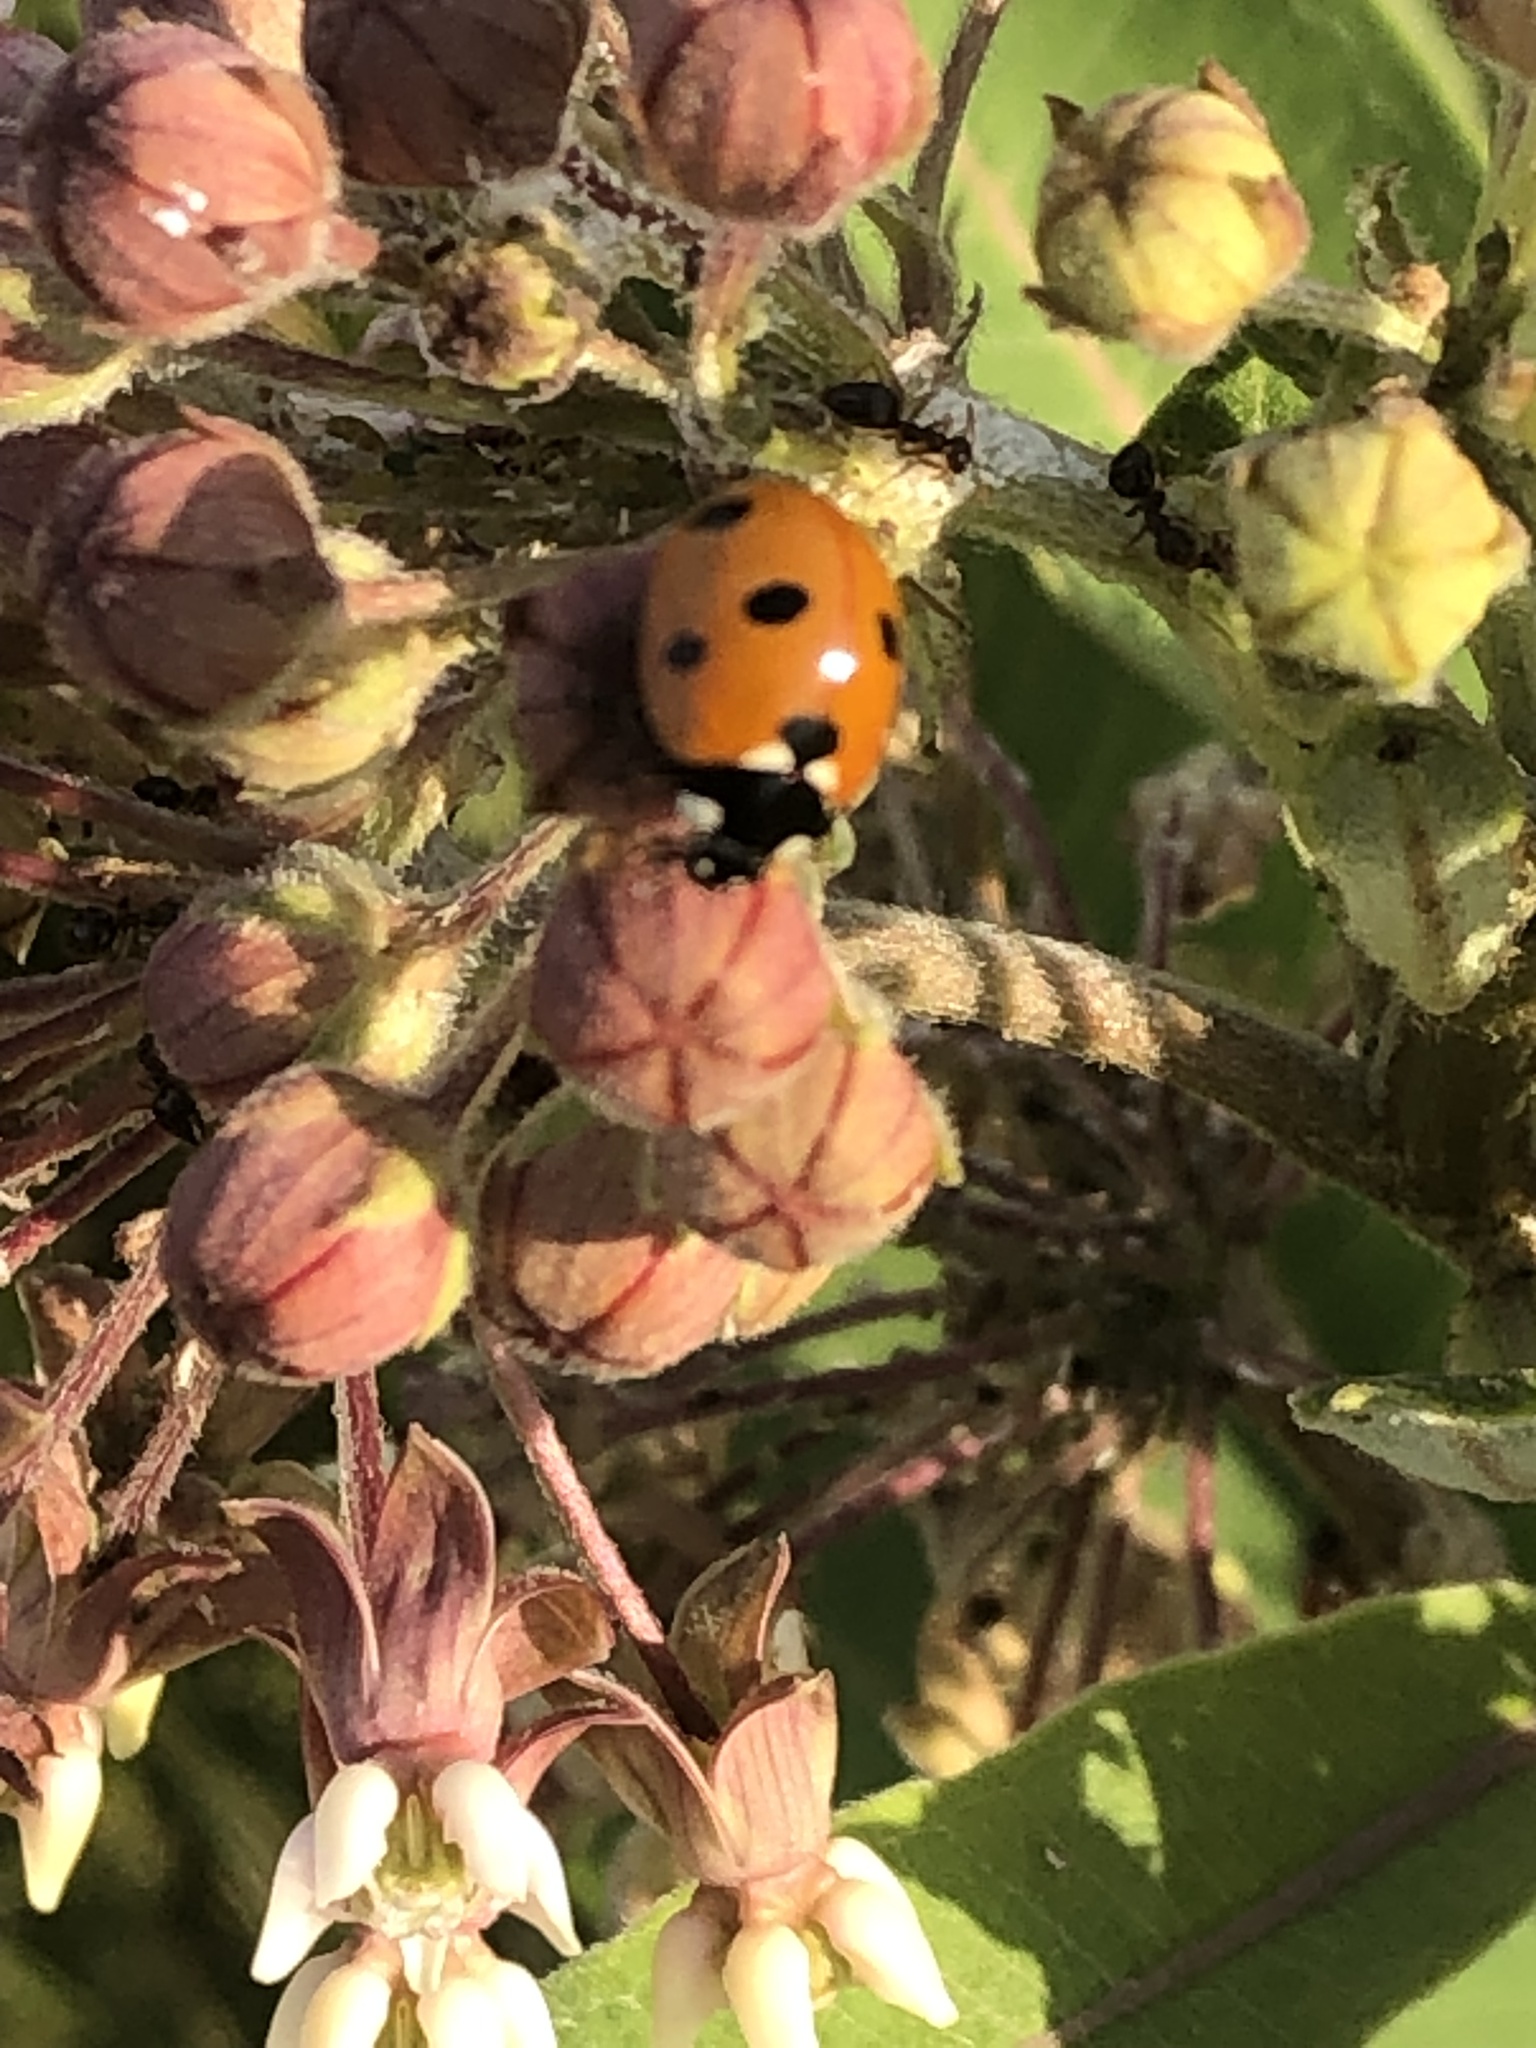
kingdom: Animalia
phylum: Arthropoda
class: Insecta
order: Coleoptera
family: Coccinellidae
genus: Coccinella
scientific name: Coccinella septempunctata
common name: Sevenspotted lady beetle
